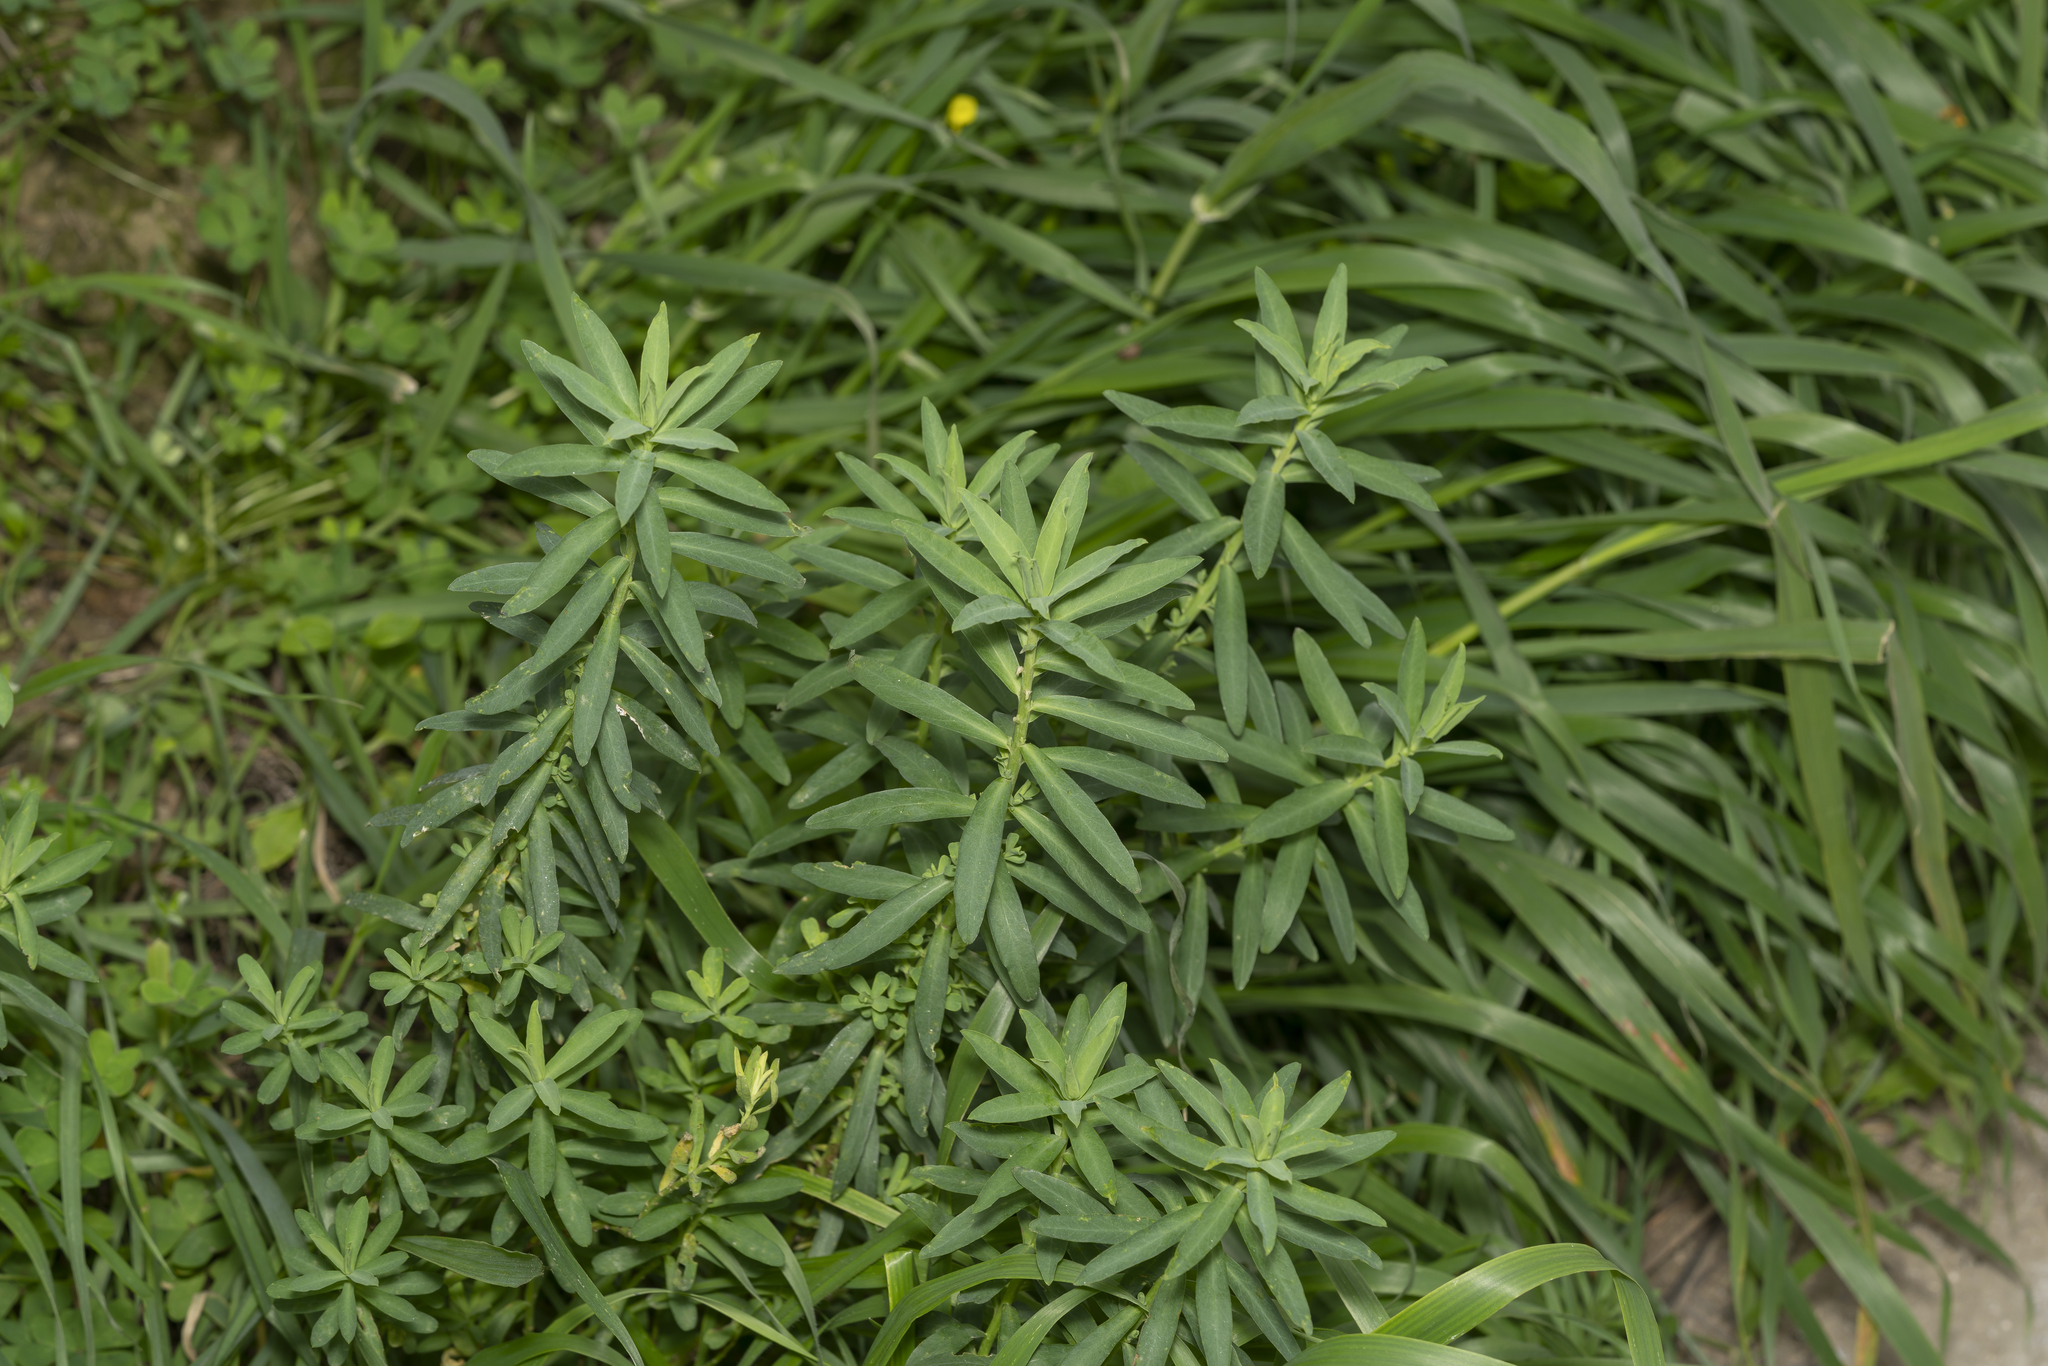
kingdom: Plantae
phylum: Tracheophyta
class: Magnoliopsida
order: Malpighiales
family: Euphorbiaceae
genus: Euphorbia
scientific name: Euphorbia terracina
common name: Geraldton carnation weed
